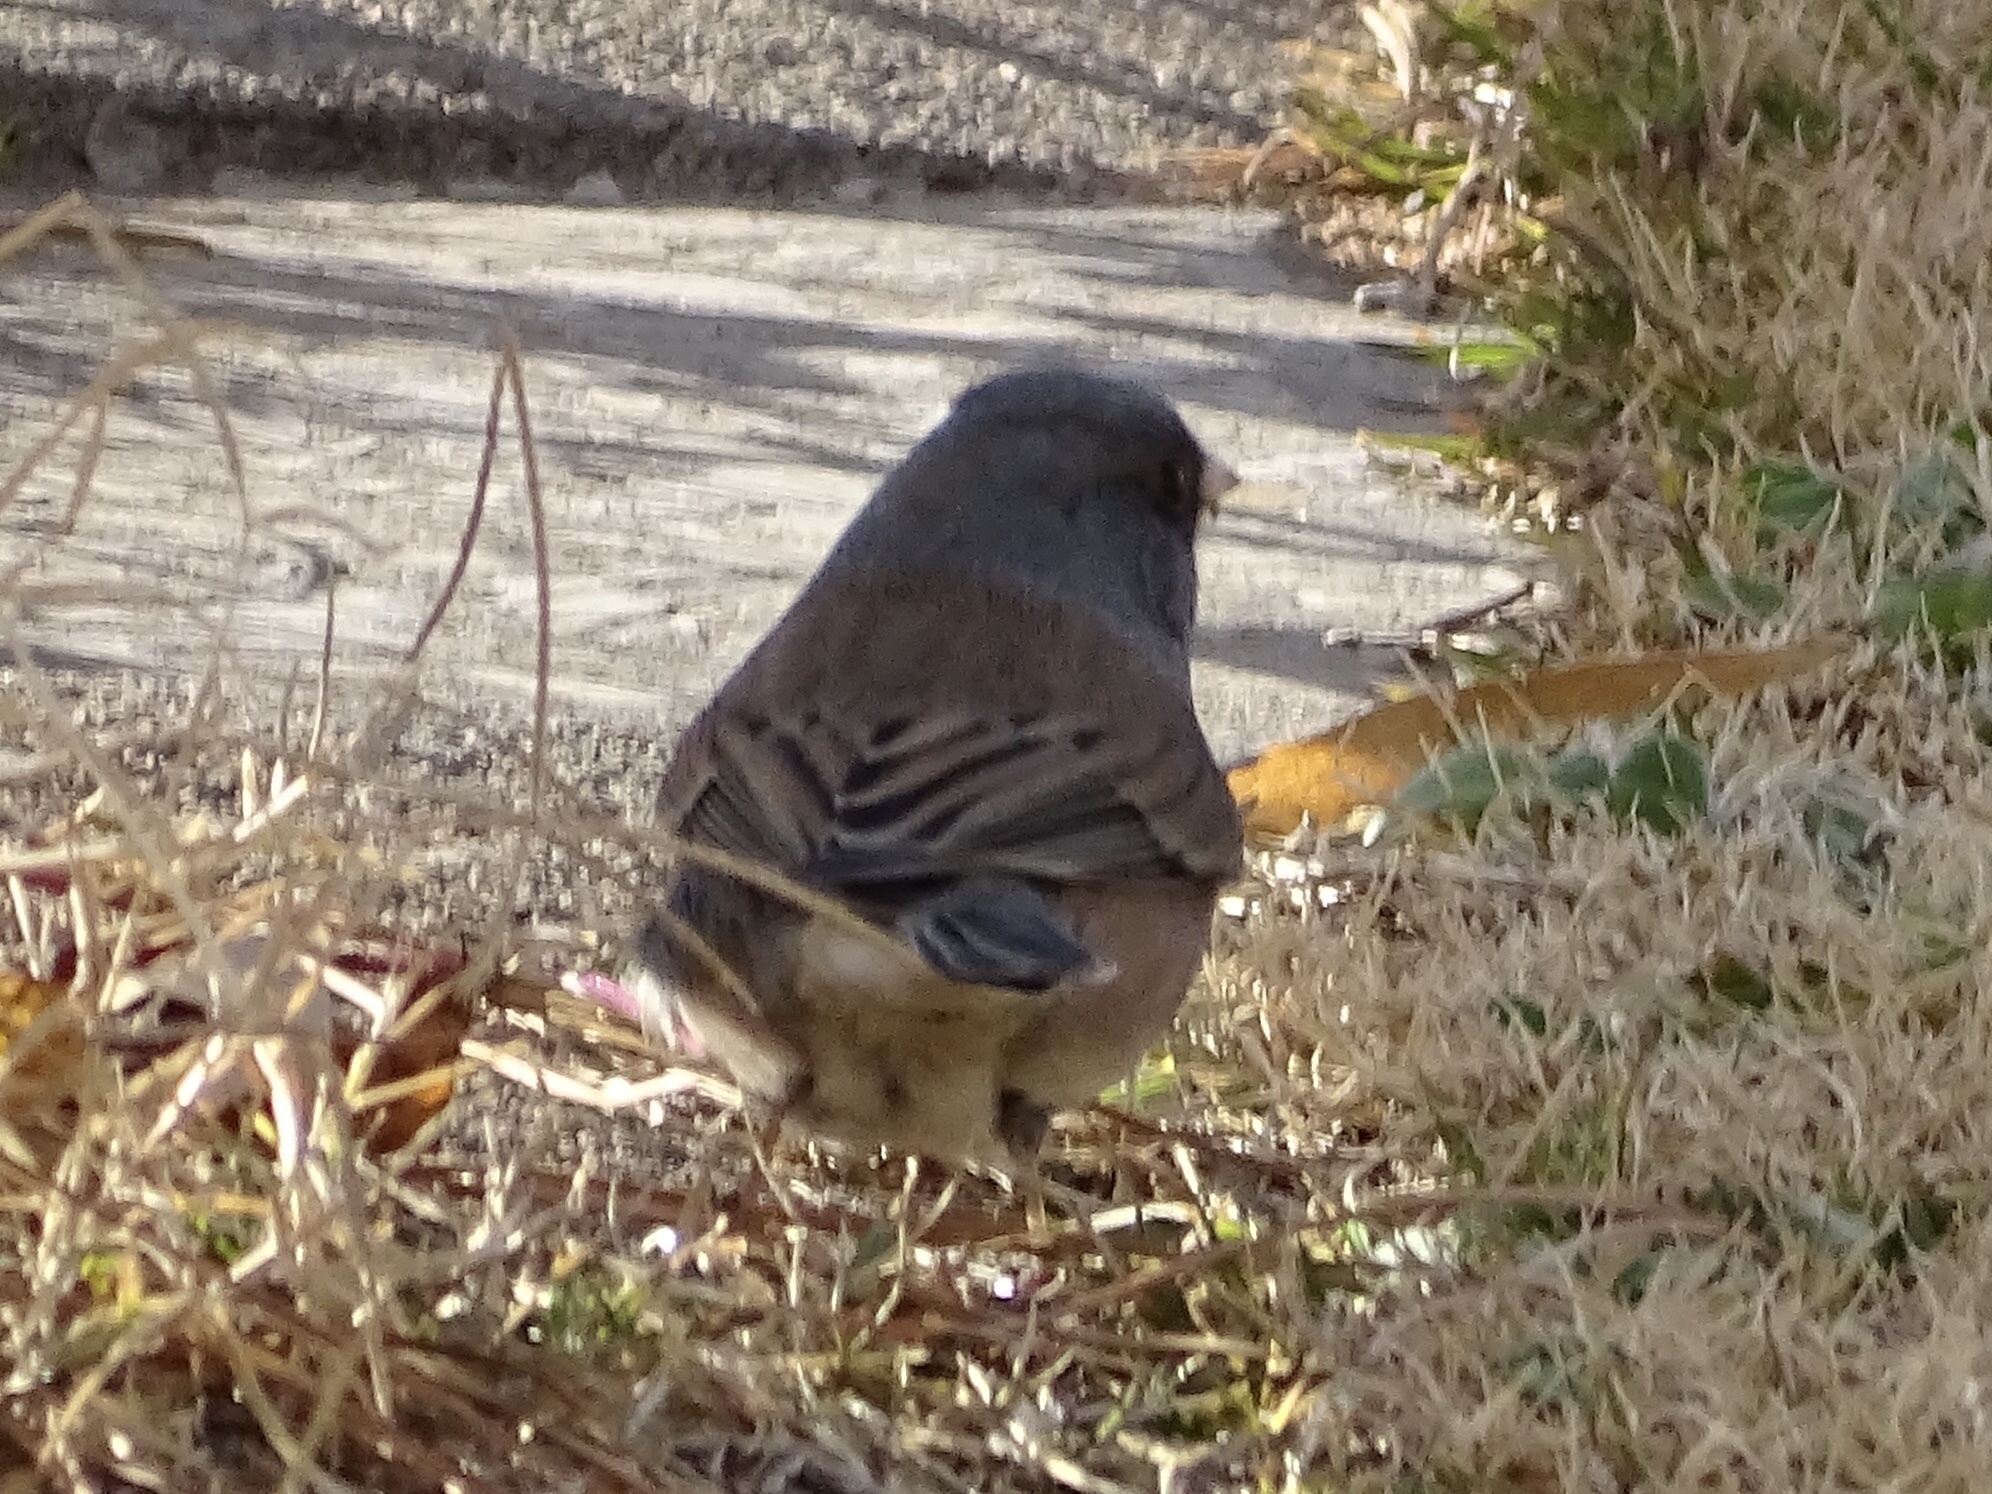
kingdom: Animalia
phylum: Chordata
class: Aves
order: Passeriformes
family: Passerellidae
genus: Junco
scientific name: Junco hyemalis
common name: Dark-eyed junco
